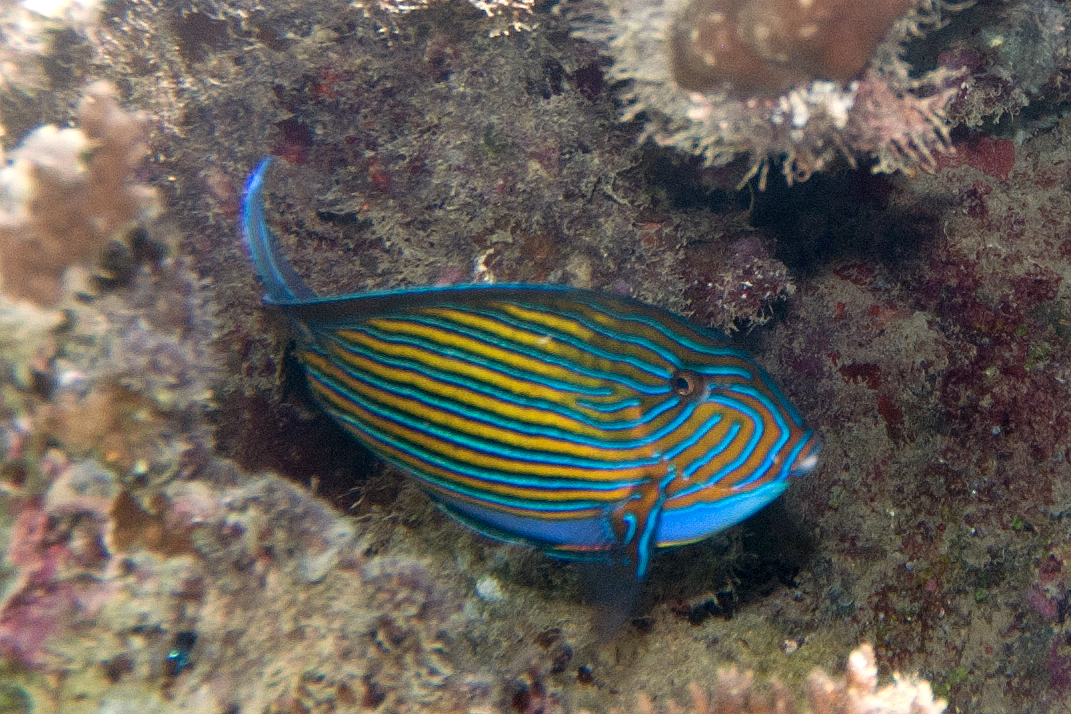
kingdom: Animalia
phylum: Chordata
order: Perciformes
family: Acanthuridae
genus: Acanthurus
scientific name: Acanthurus lineatus
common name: Striped surgeonfish
